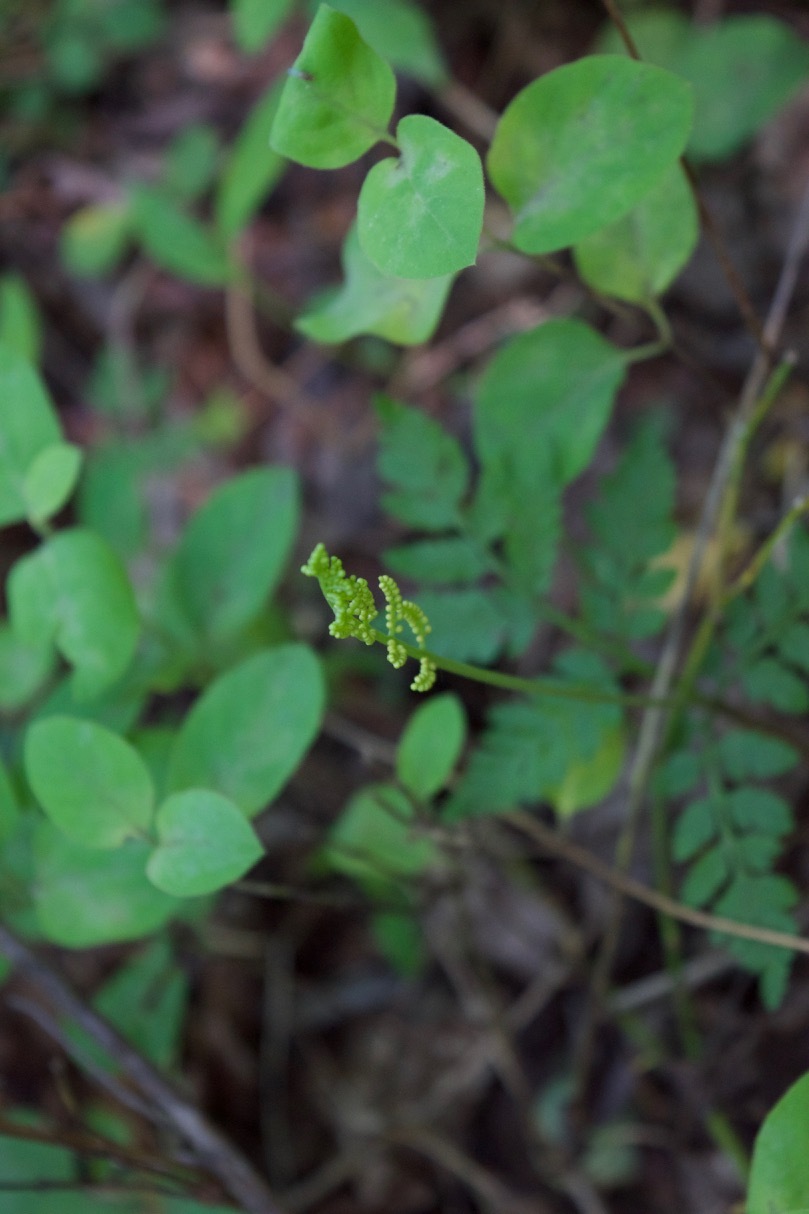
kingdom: Plantae
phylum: Tracheophyta
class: Polypodiopsida
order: Ophioglossales
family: Ophioglossaceae
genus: Botrypus
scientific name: Botrypus virginianus
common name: Common grapefern
